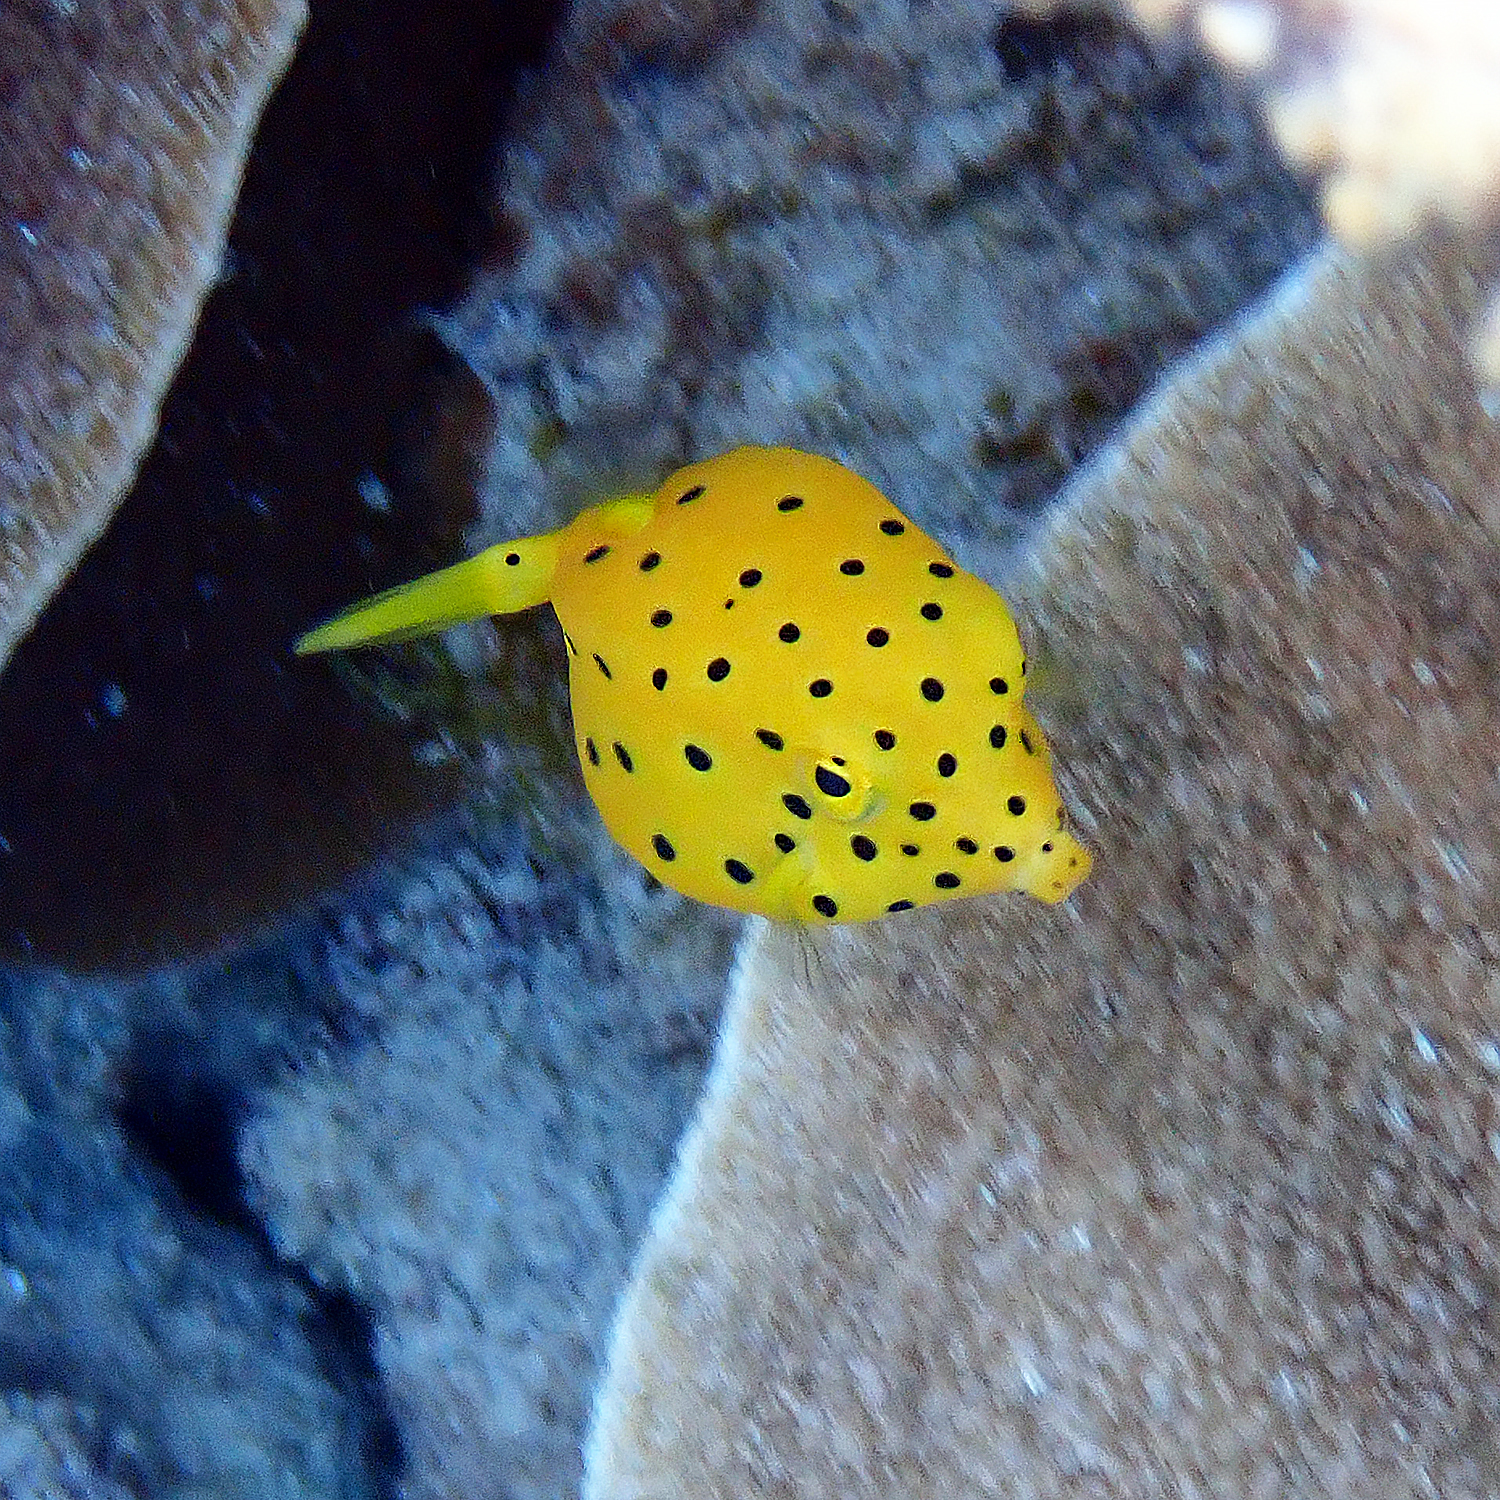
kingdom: Animalia
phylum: Chordata
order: Tetraodontiformes
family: Ostraciidae
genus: Ostracion
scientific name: Ostracion cubicus
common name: Cube trunkfish
